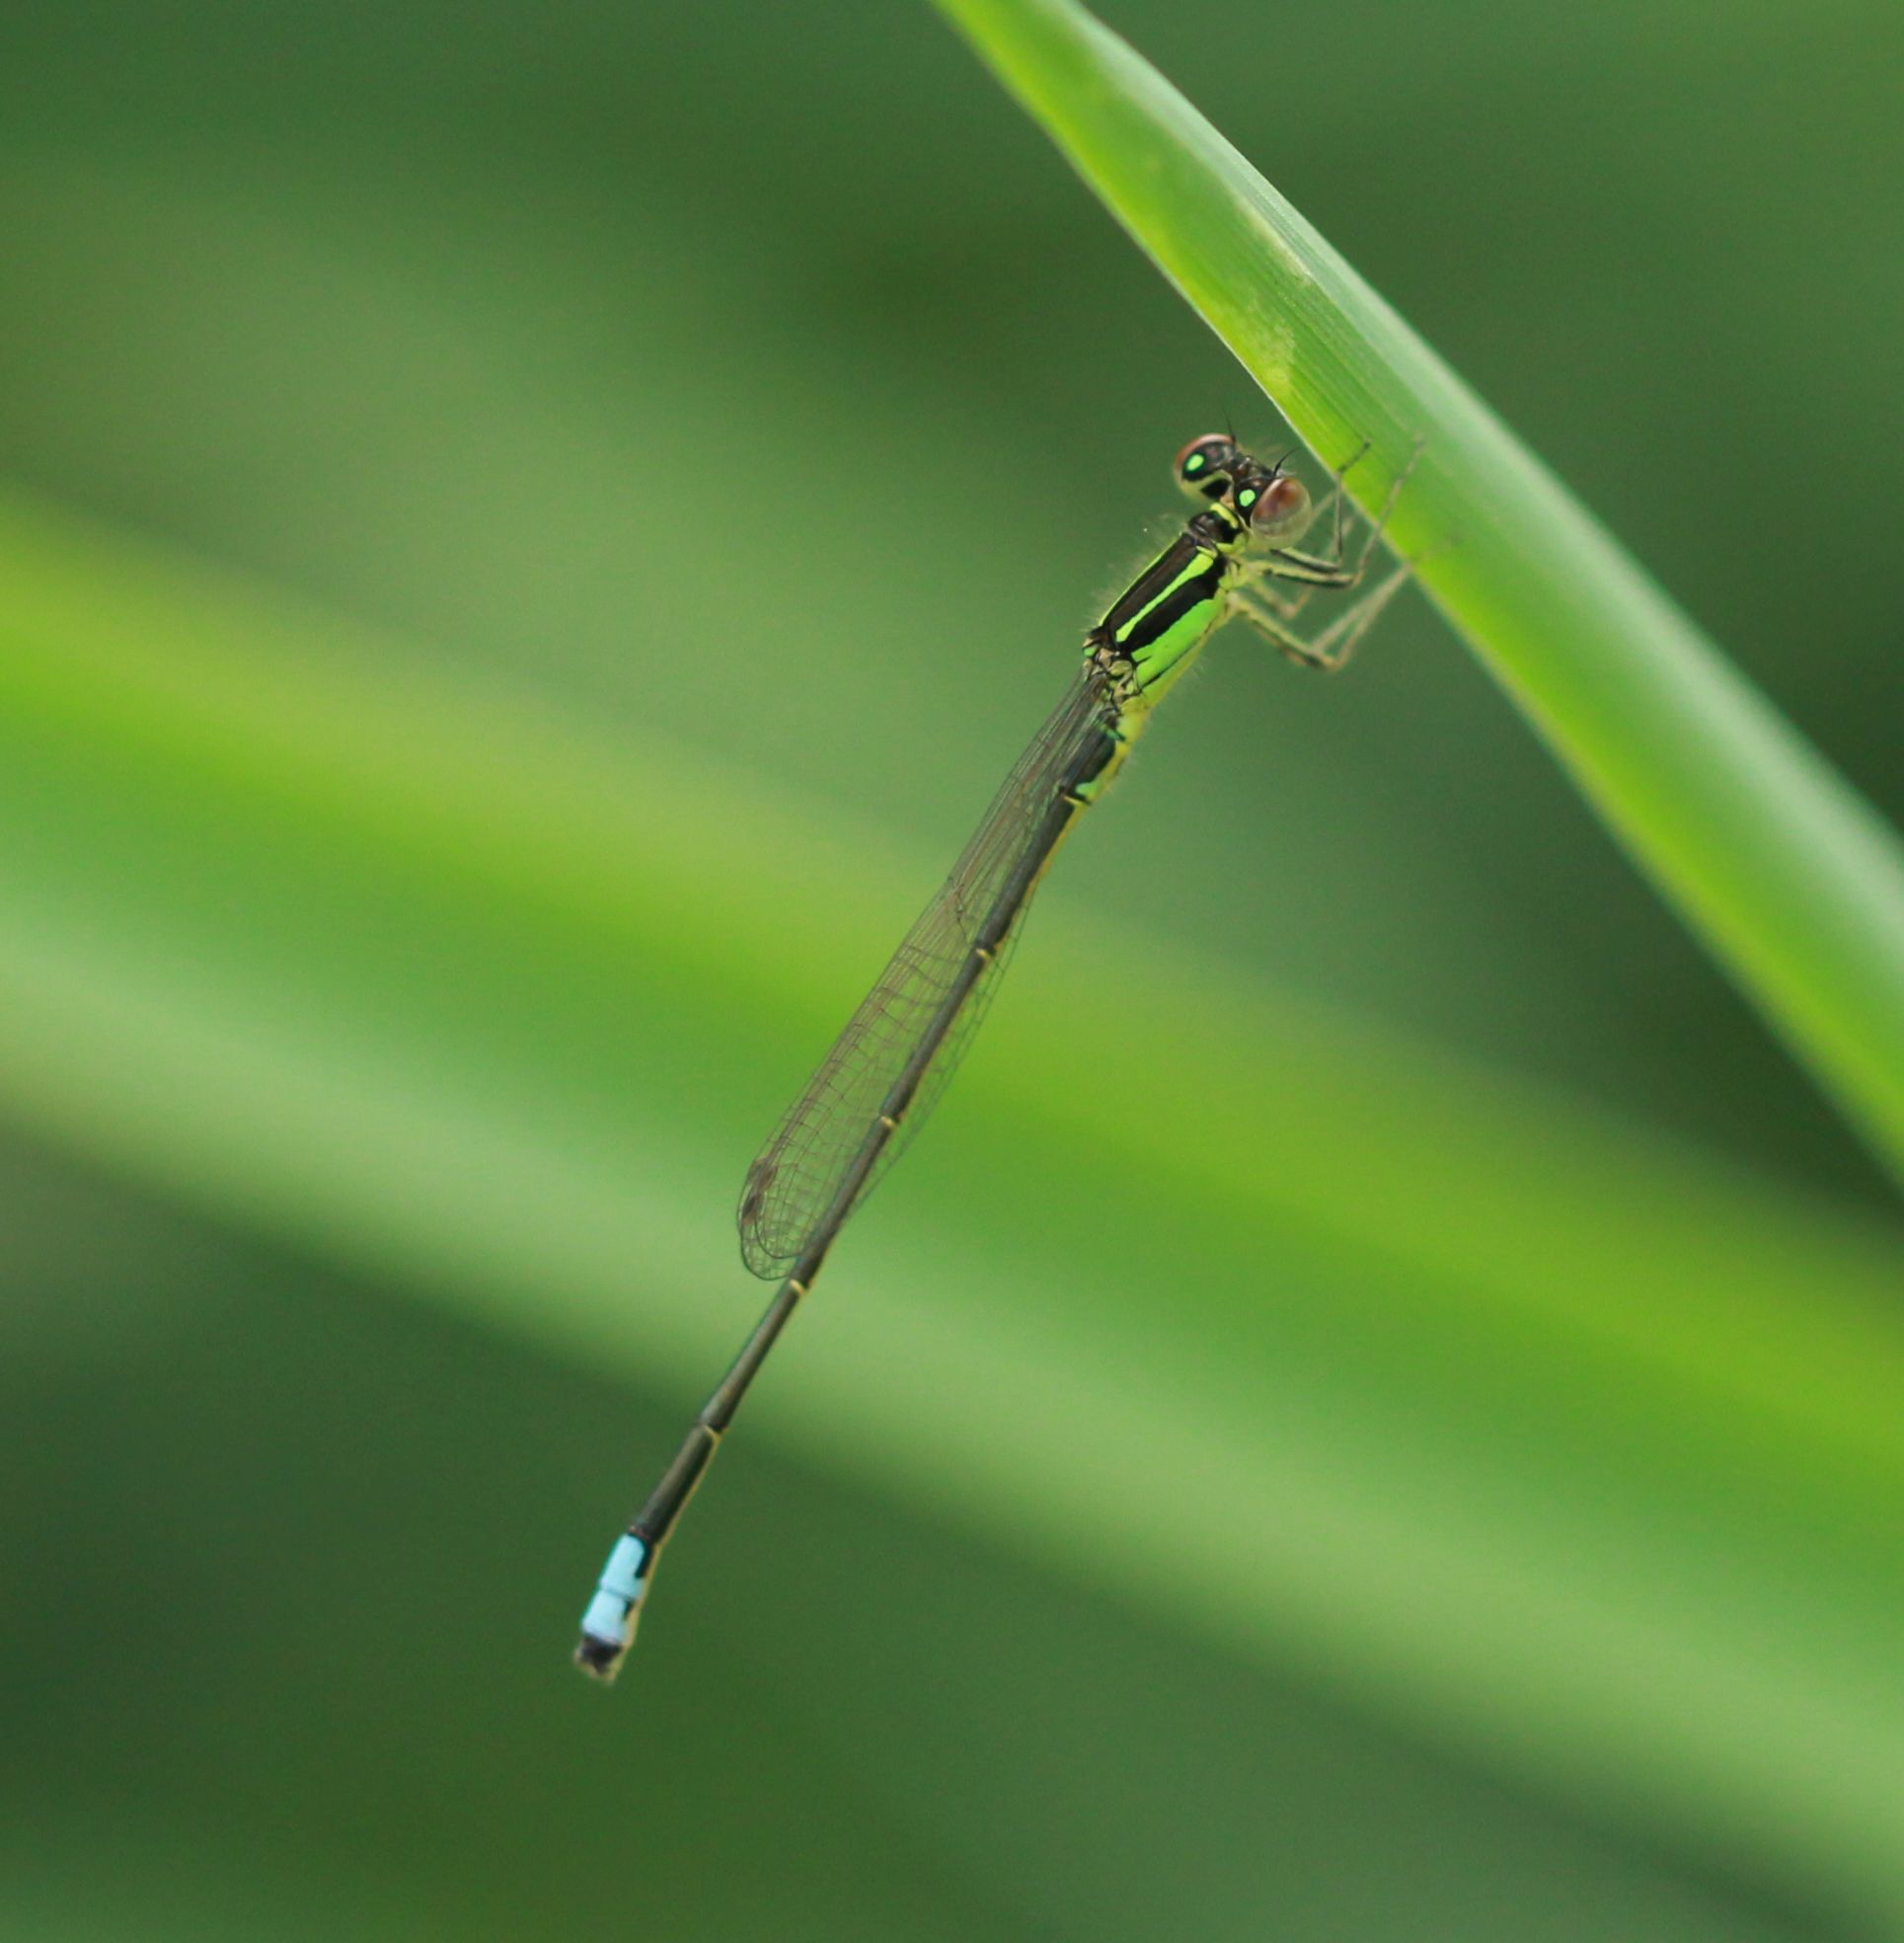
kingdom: Animalia
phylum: Arthropoda
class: Insecta
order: Odonata
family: Coenagrionidae
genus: Ischnura
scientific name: Ischnura verticalis
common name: Eastern forktail
